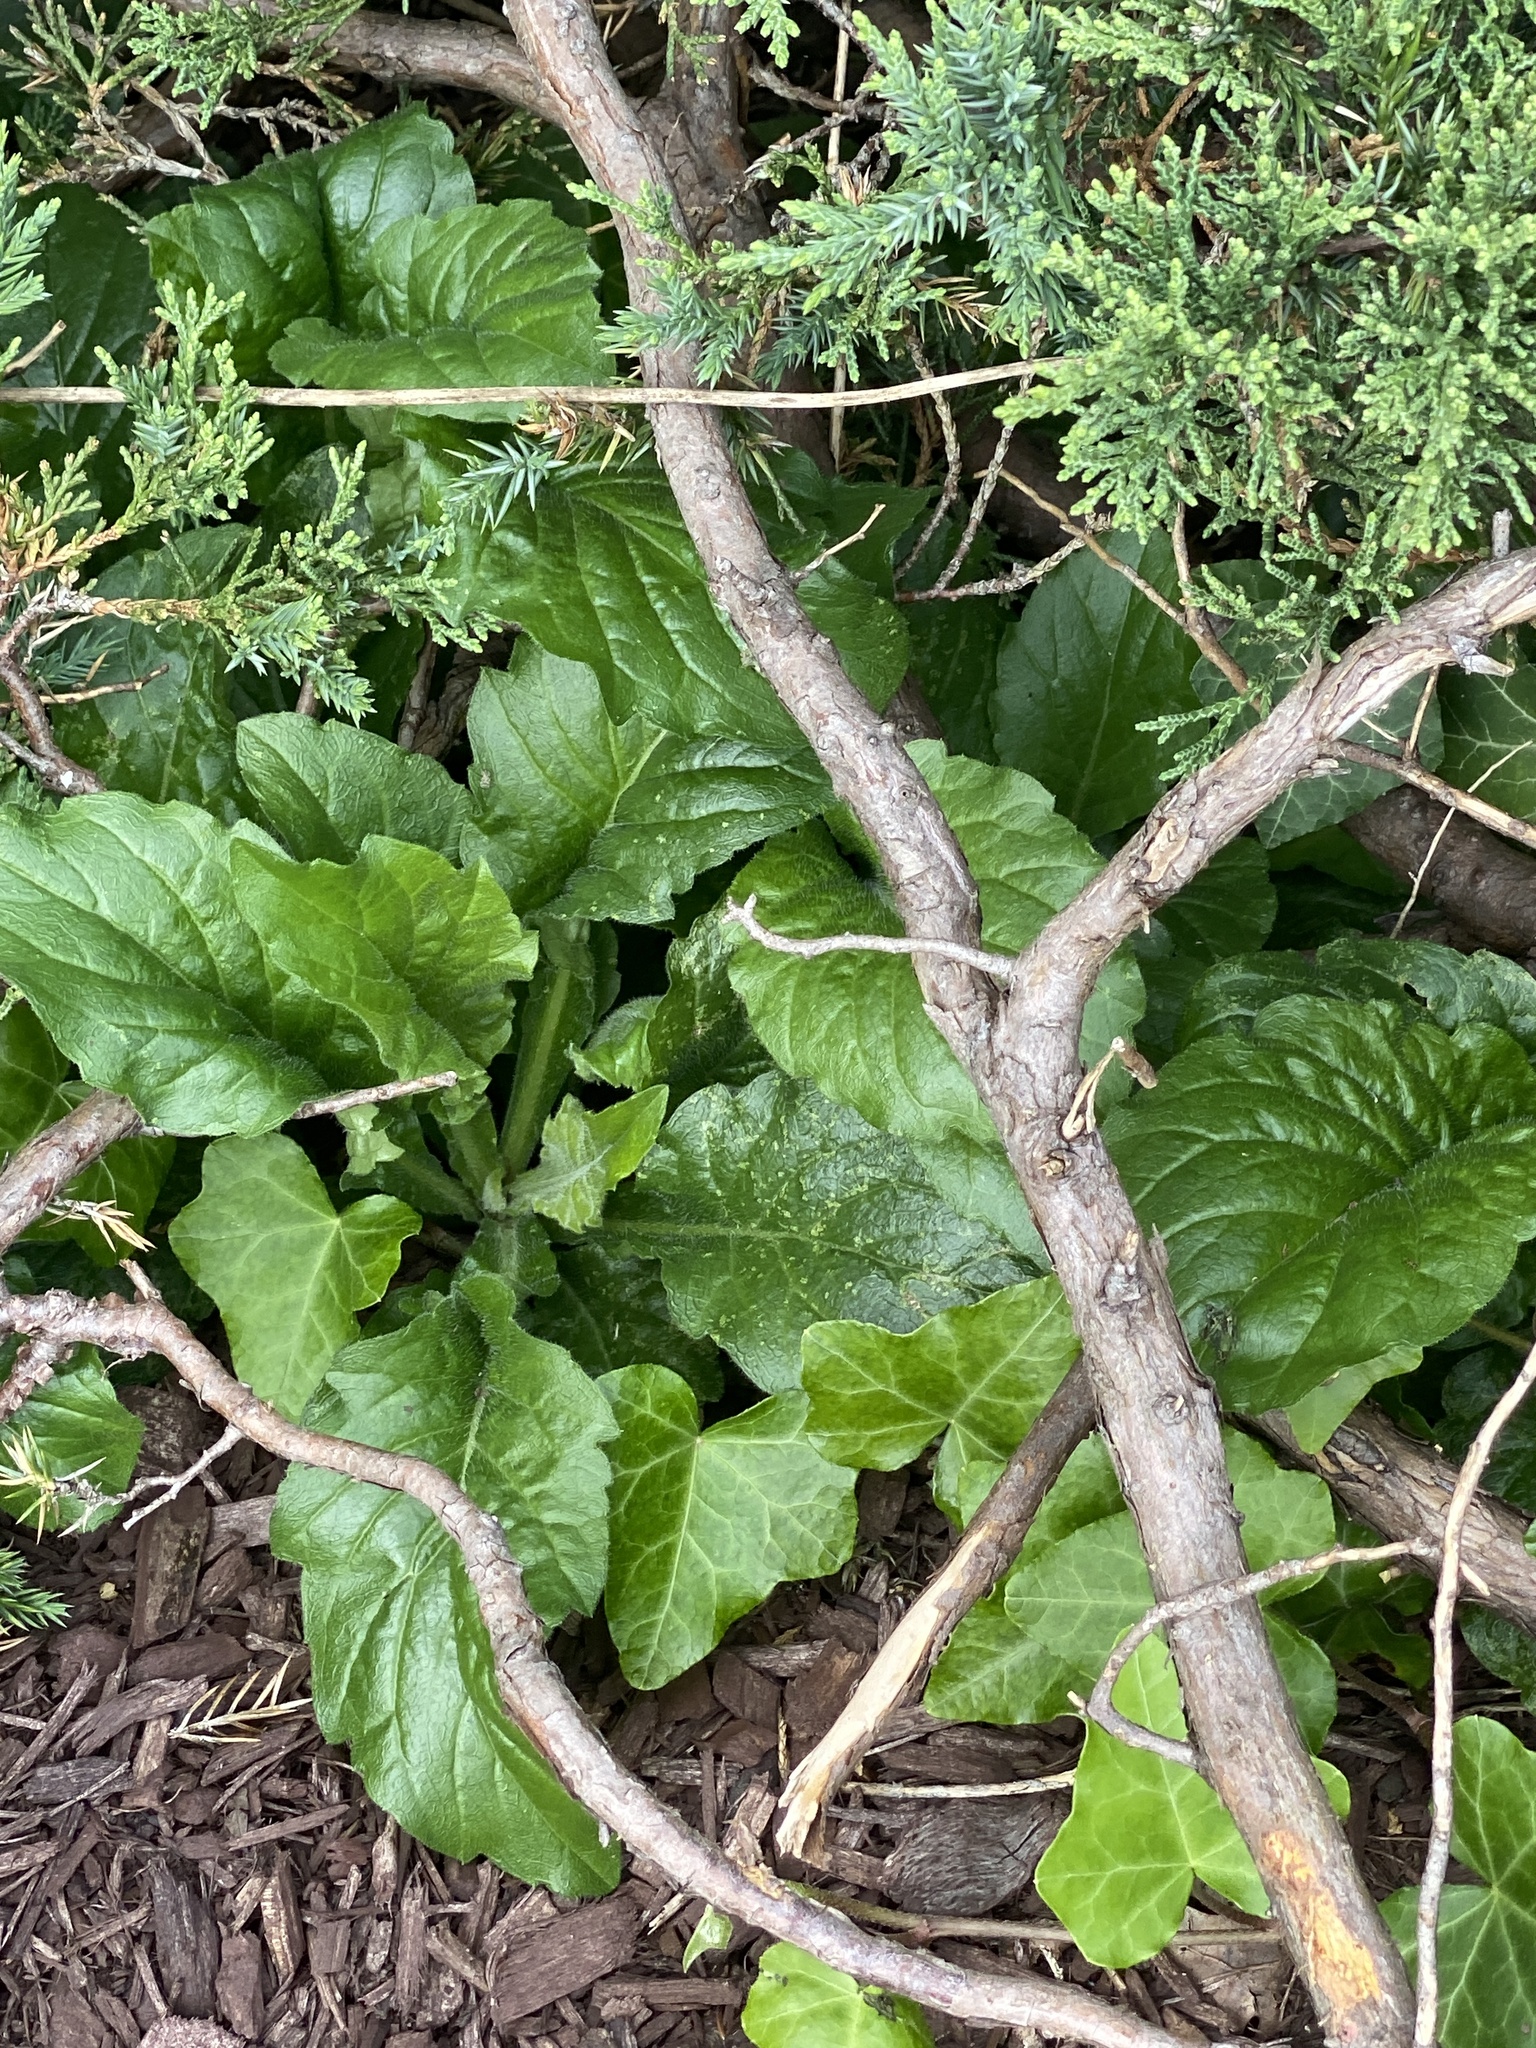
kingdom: Plantae
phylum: Tracheophyta
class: Magnoliopsida
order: Asterales
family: Asteraceae
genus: Erigeron
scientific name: Erigeron annuus
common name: Tall fleabane
